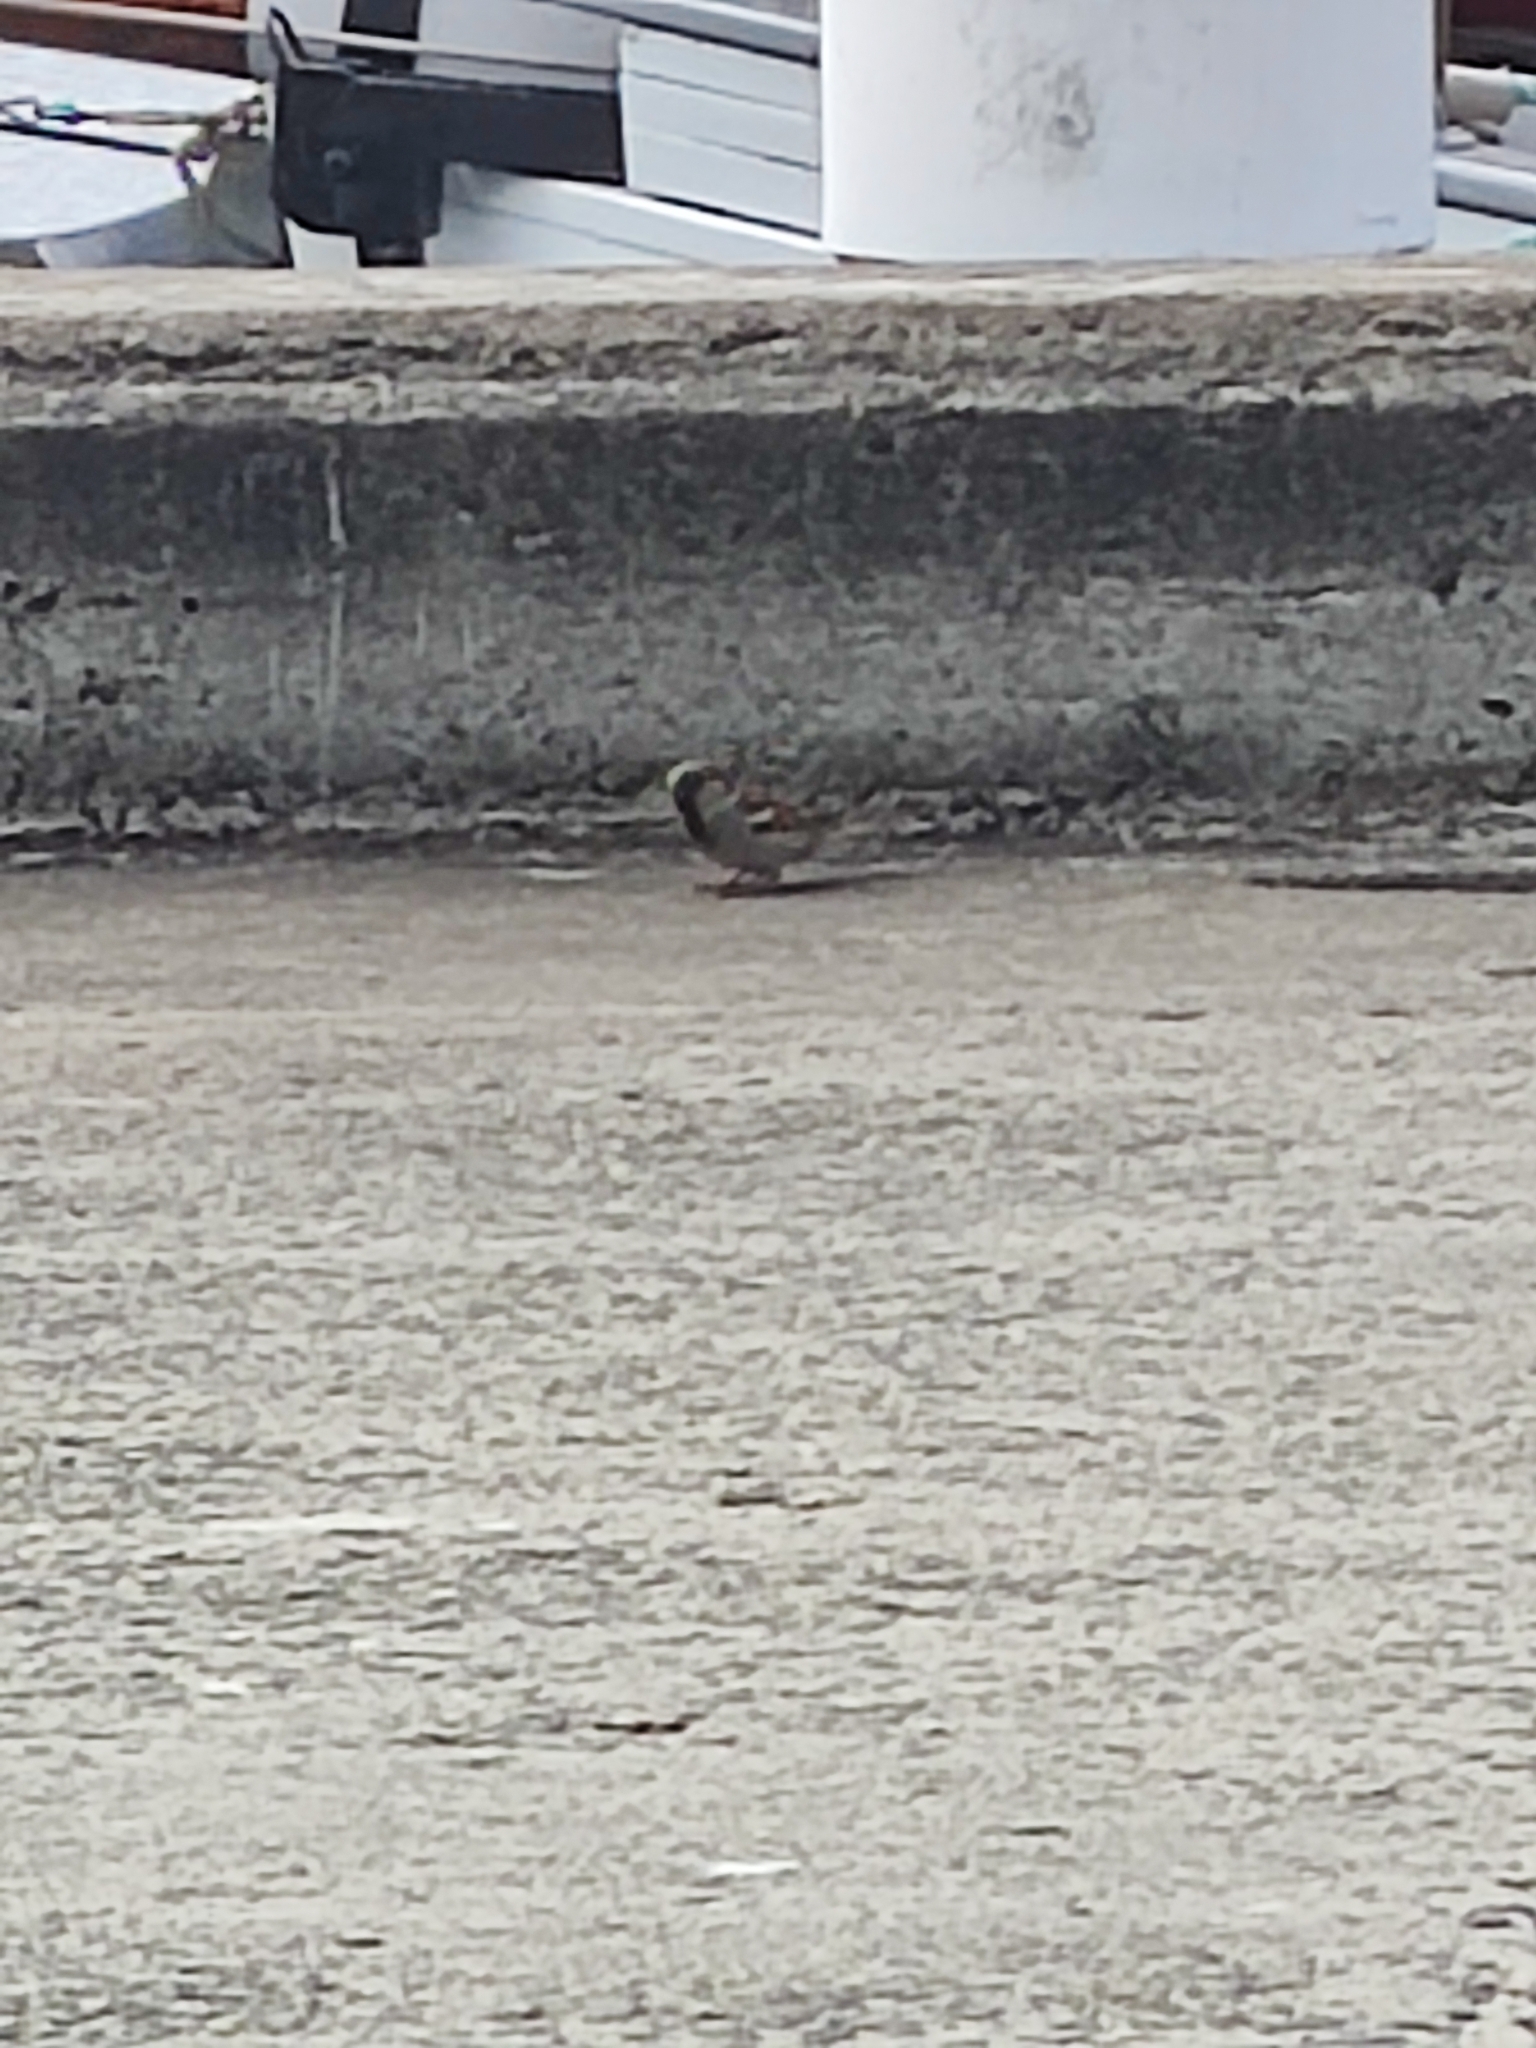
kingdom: Animalia
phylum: Chordata
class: Aves
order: Passeriformes
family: Passeridae
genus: Passer
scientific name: Passer domesticus
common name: House sparrow
